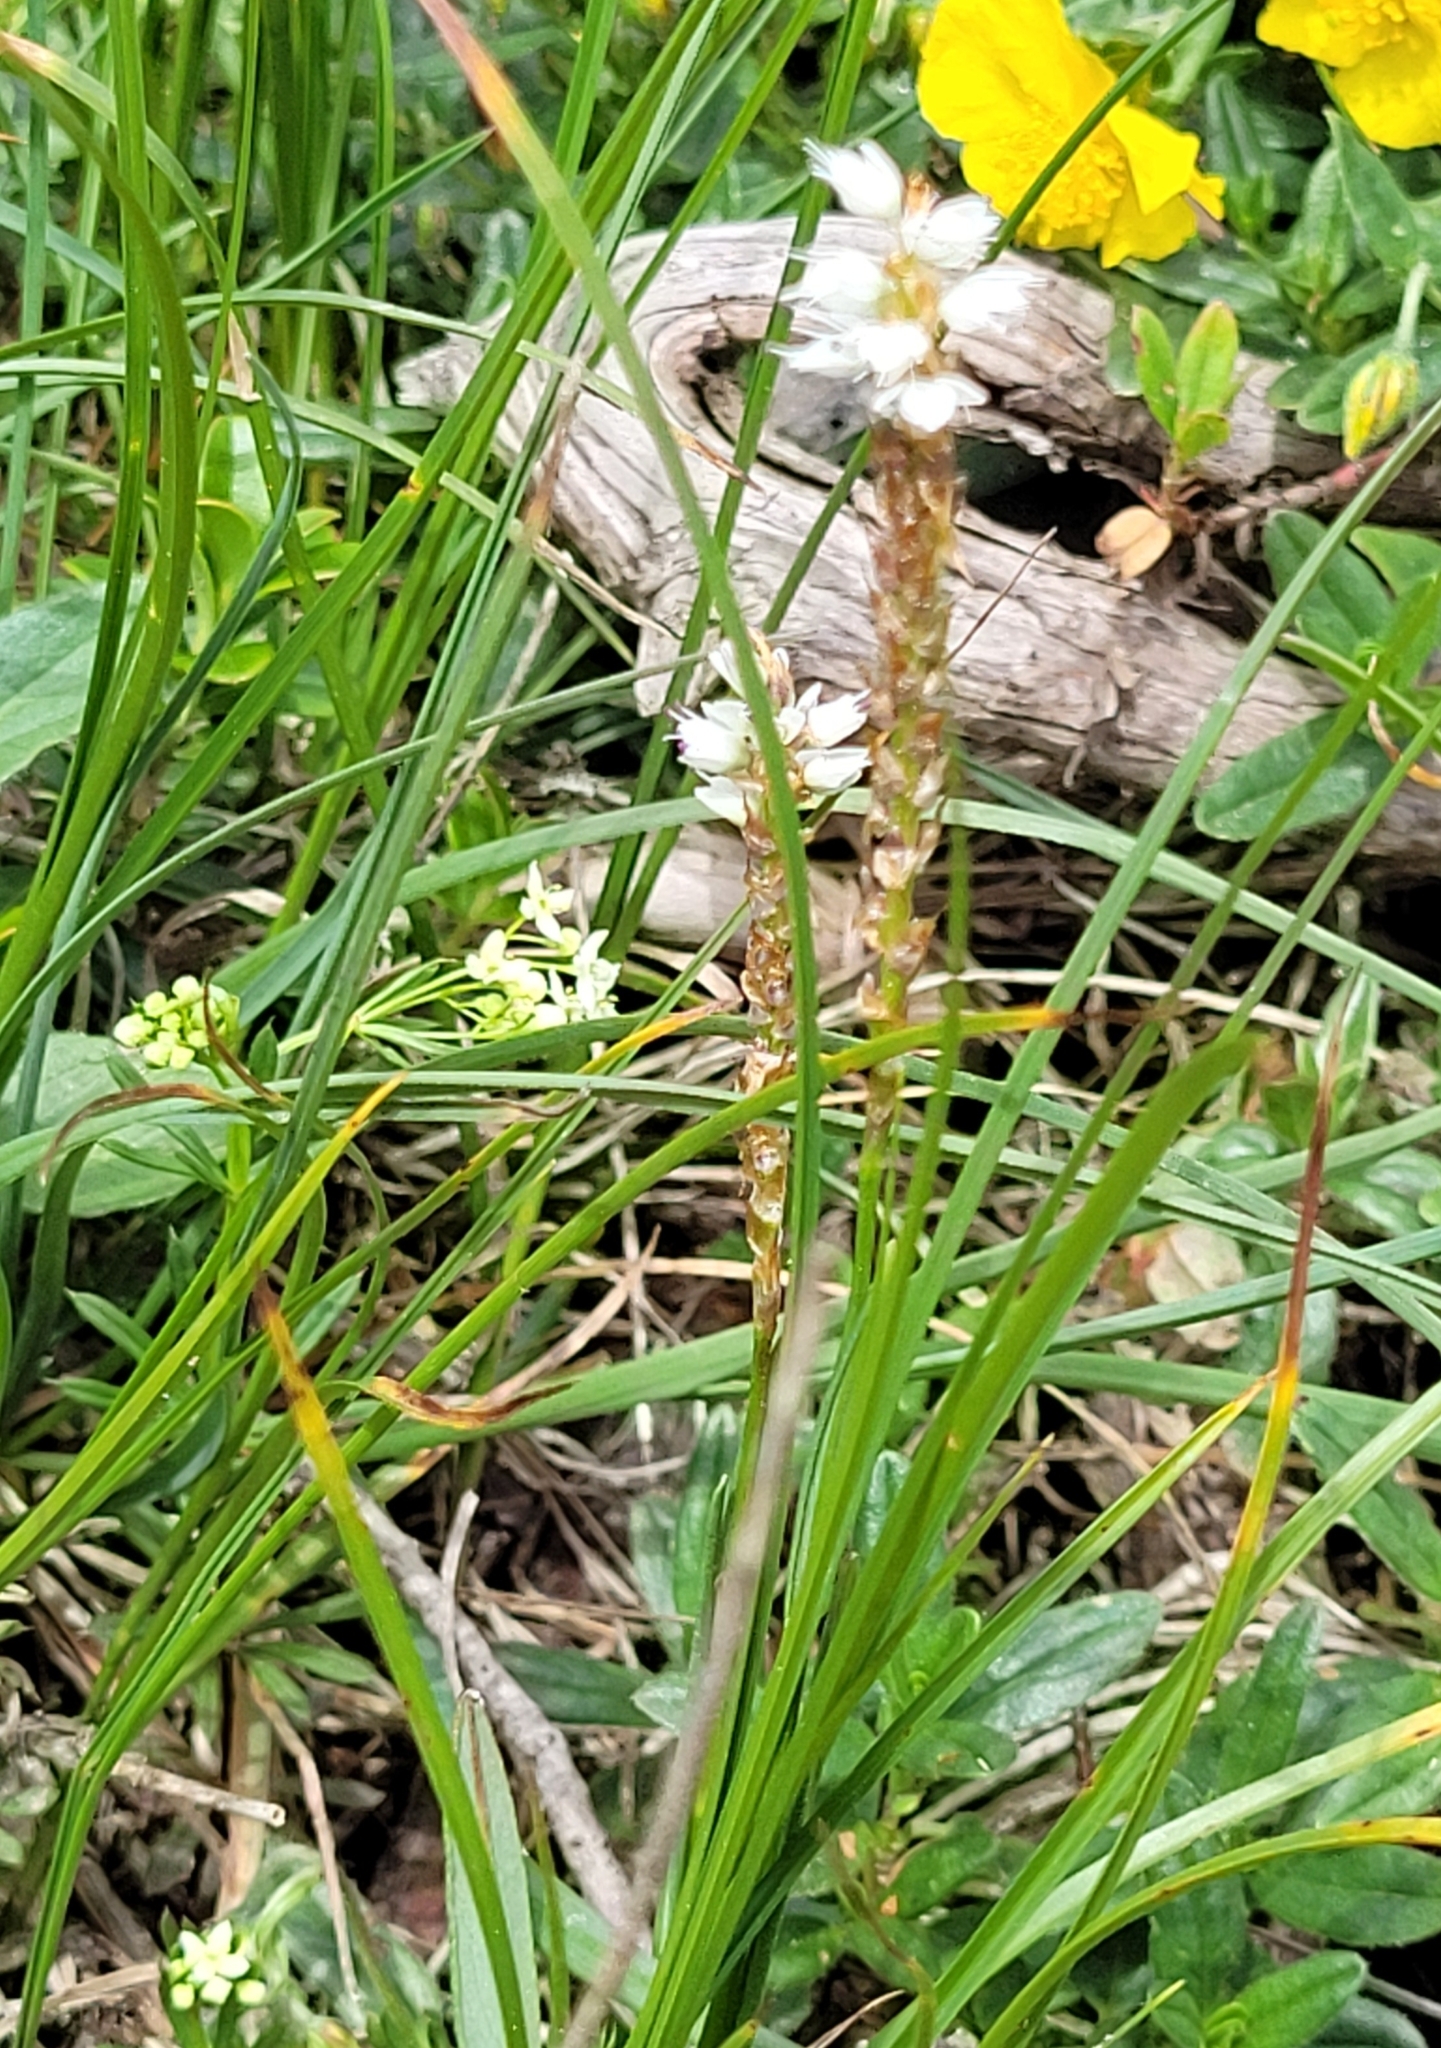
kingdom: Plantae
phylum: Tracheophyta
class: Magnoliopsida
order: Caryophyllales
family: Polygonaceae
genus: Bistorta
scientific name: Bistorta vivipara
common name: Alpine bistort
